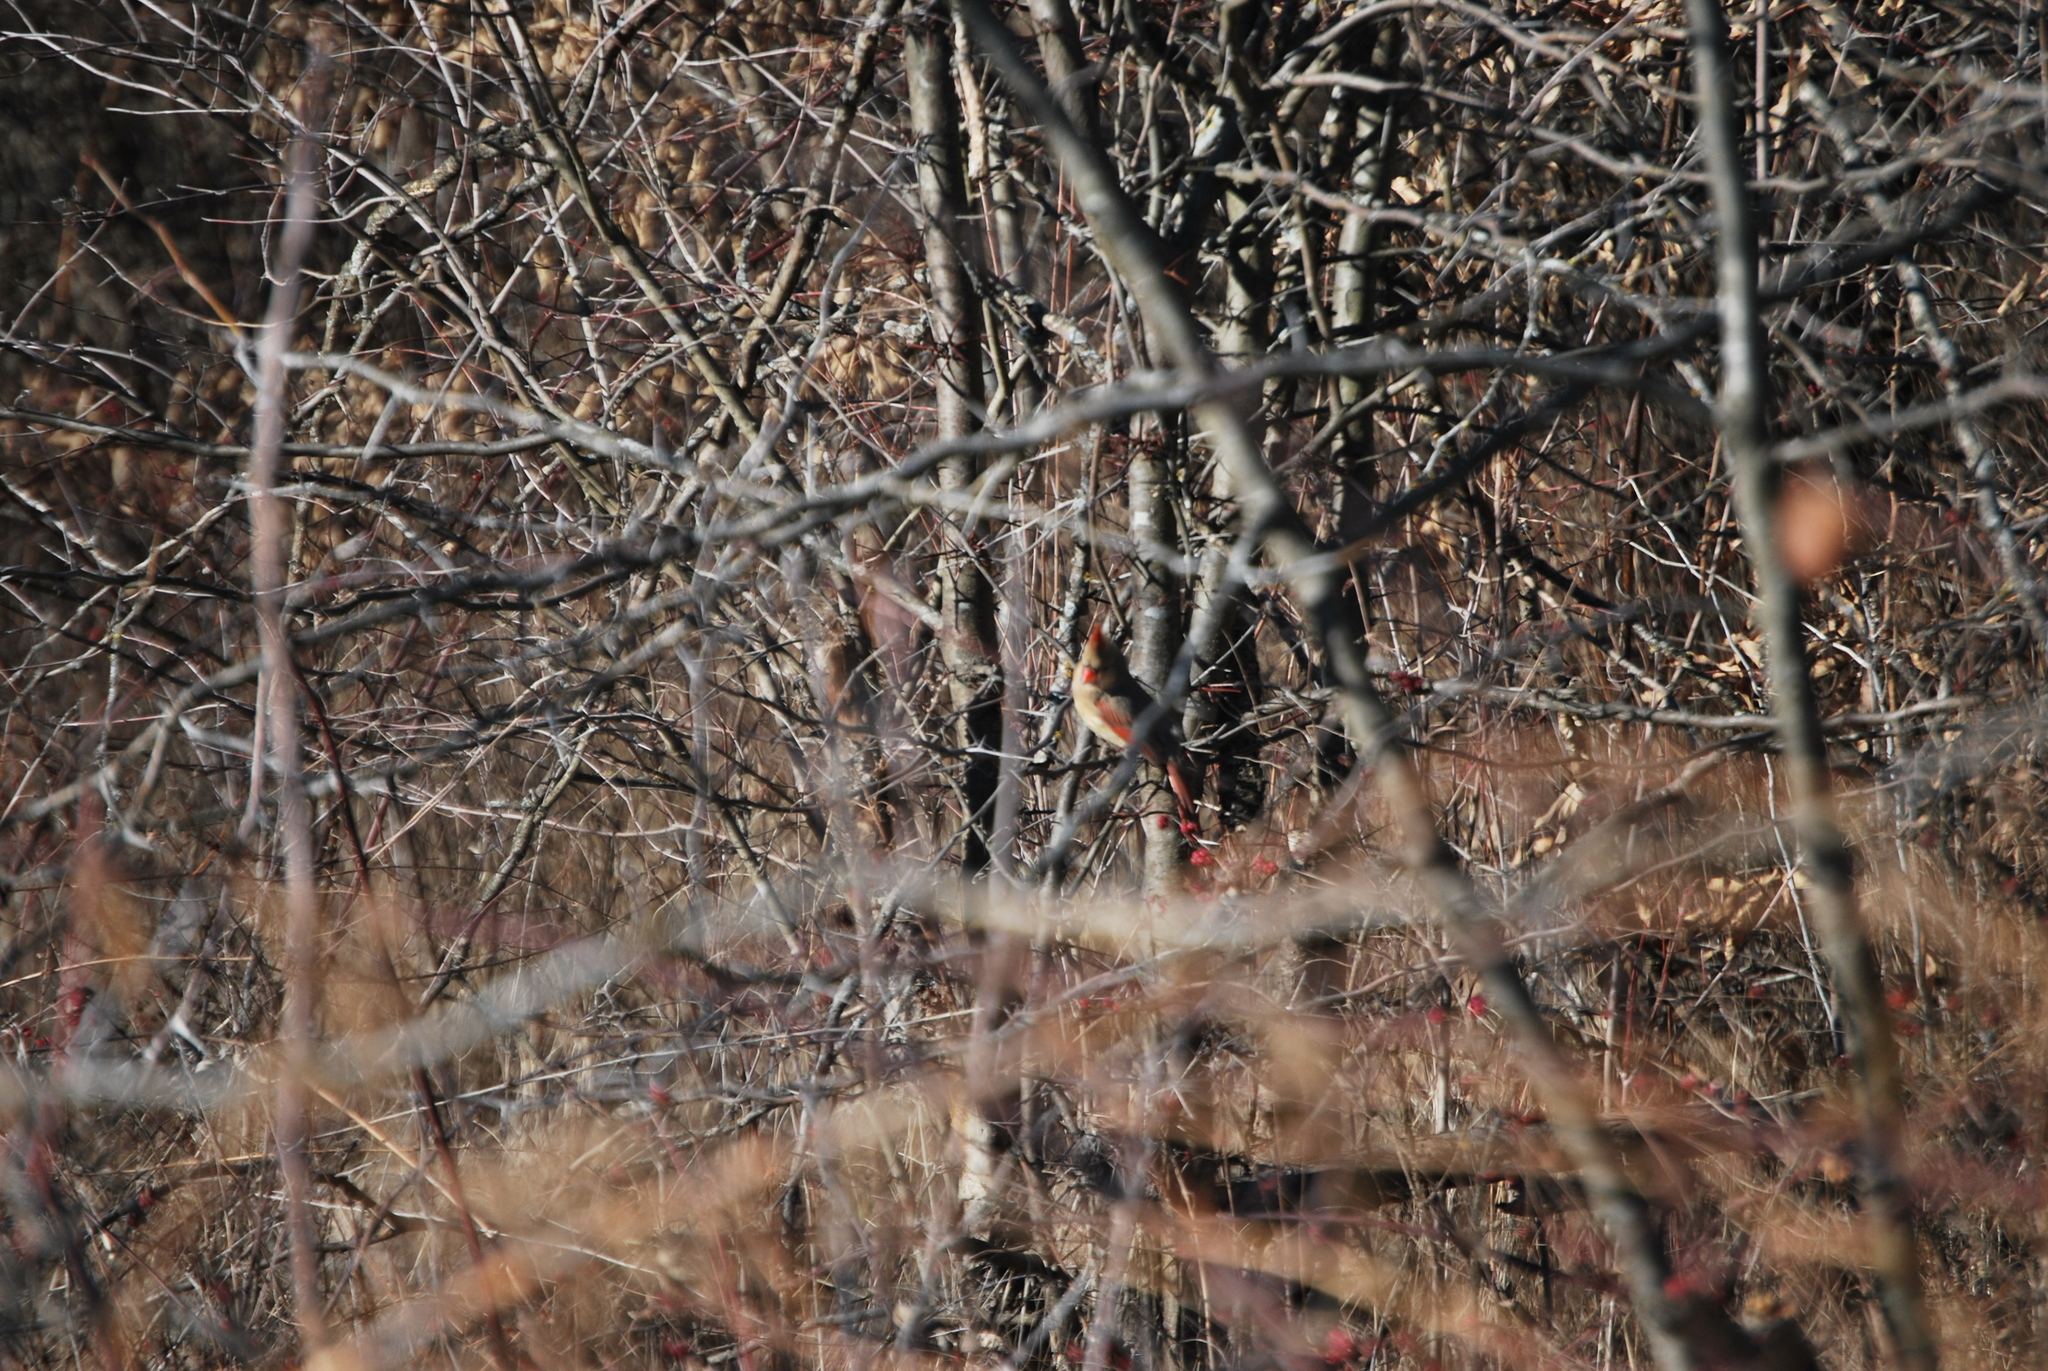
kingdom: Animalia
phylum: Chordata
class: Aves
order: Passeriformes
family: Cardinalidae
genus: Cardinalis
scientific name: Cardinalis cardinalis
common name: Northern cardinal
